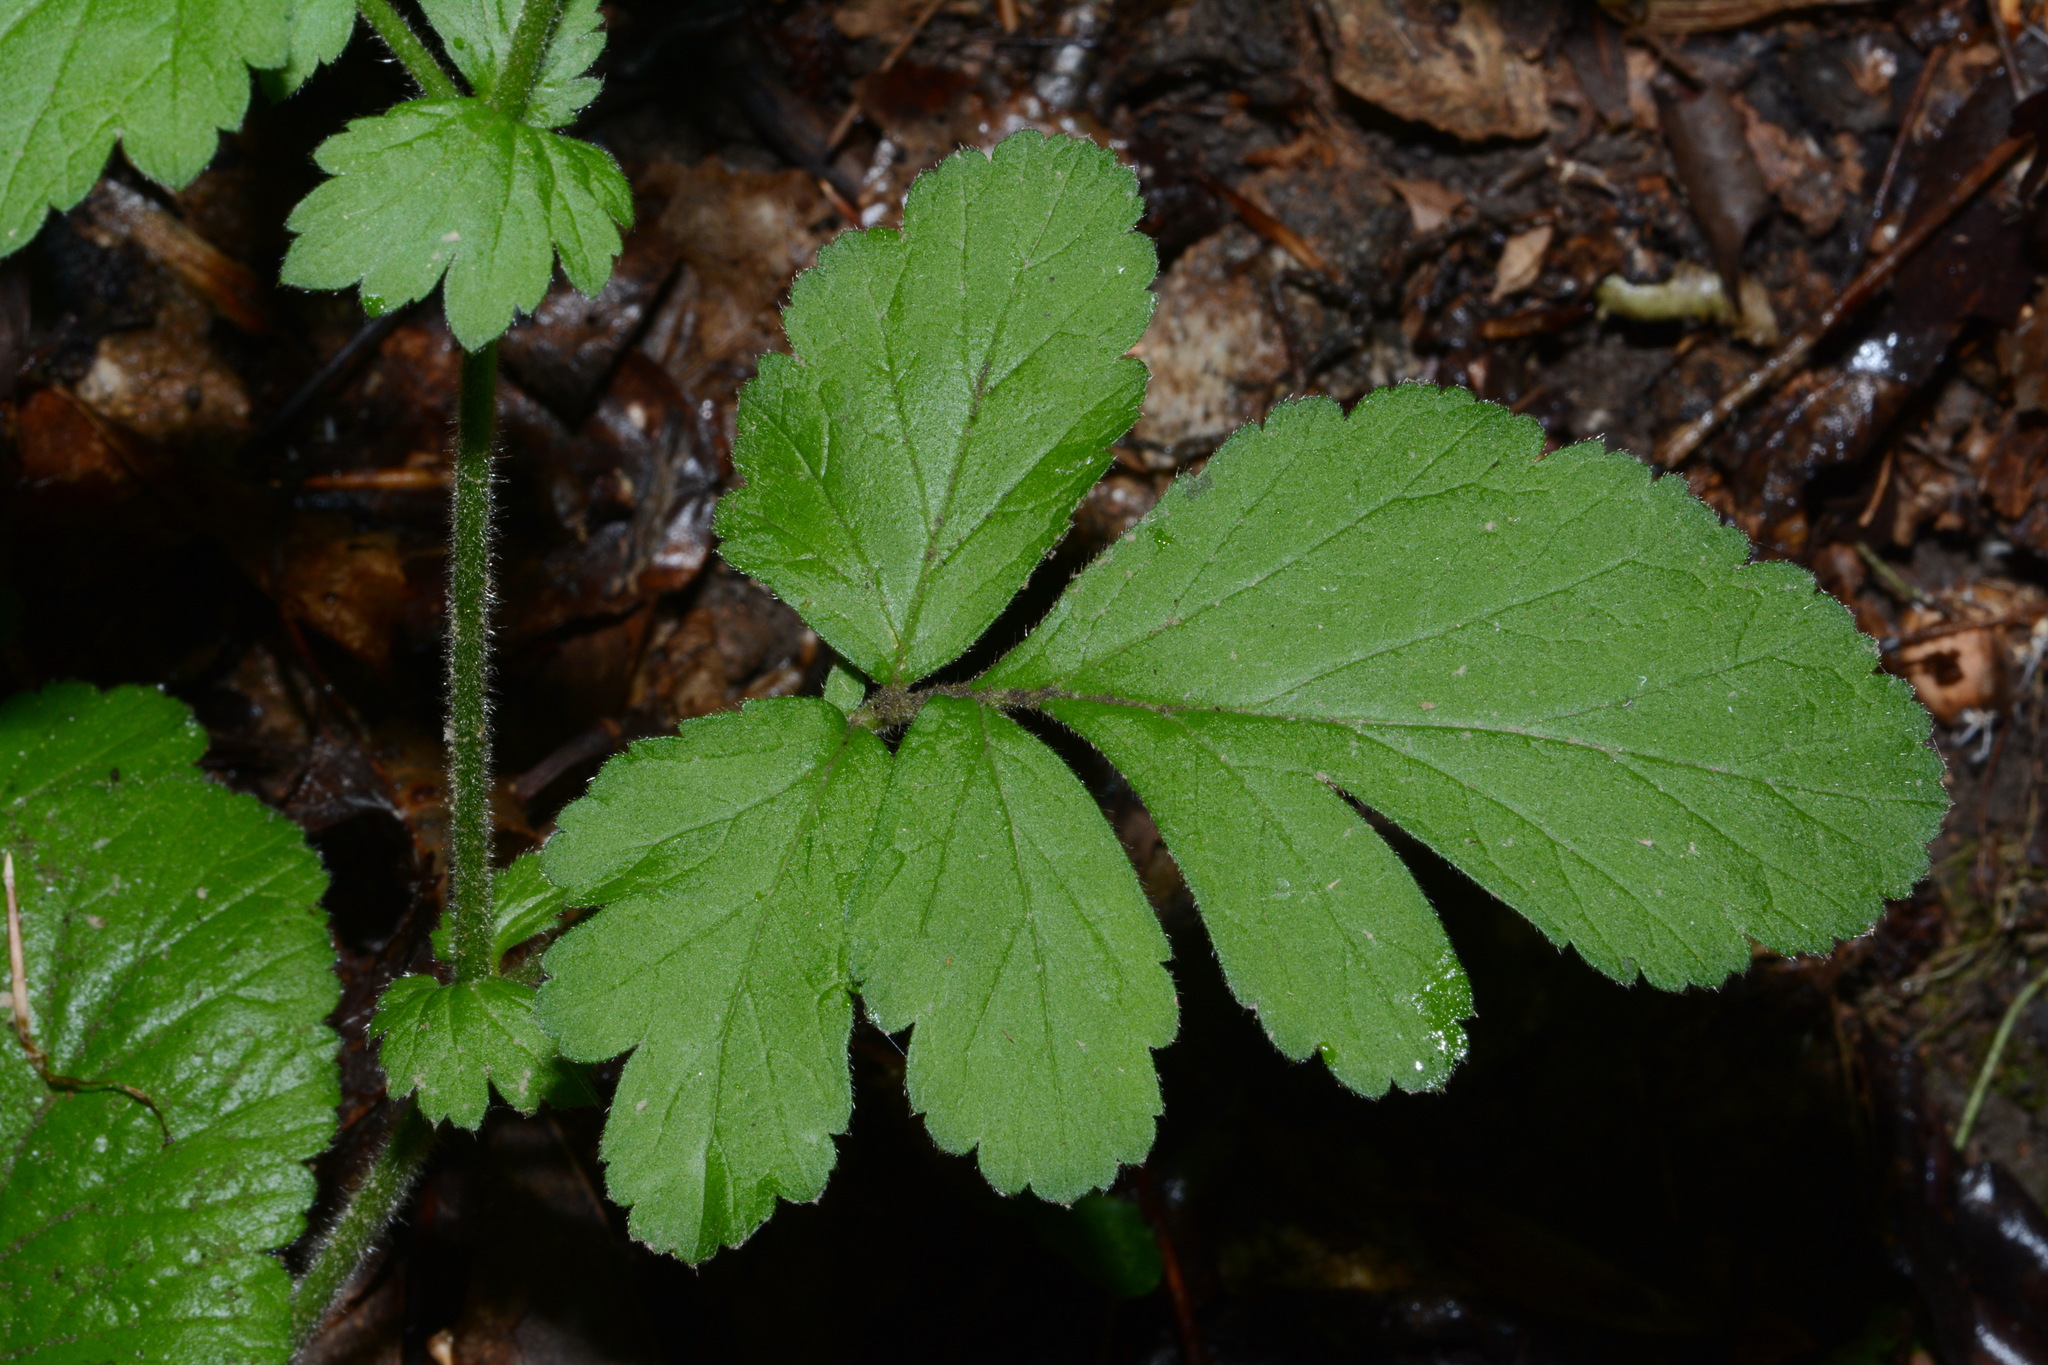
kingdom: Plantae
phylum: Tracheophyta
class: Magnoliopsida
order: Rosales
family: Rosaceae
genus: Geum
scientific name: Geum virginianum
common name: Cream avens
